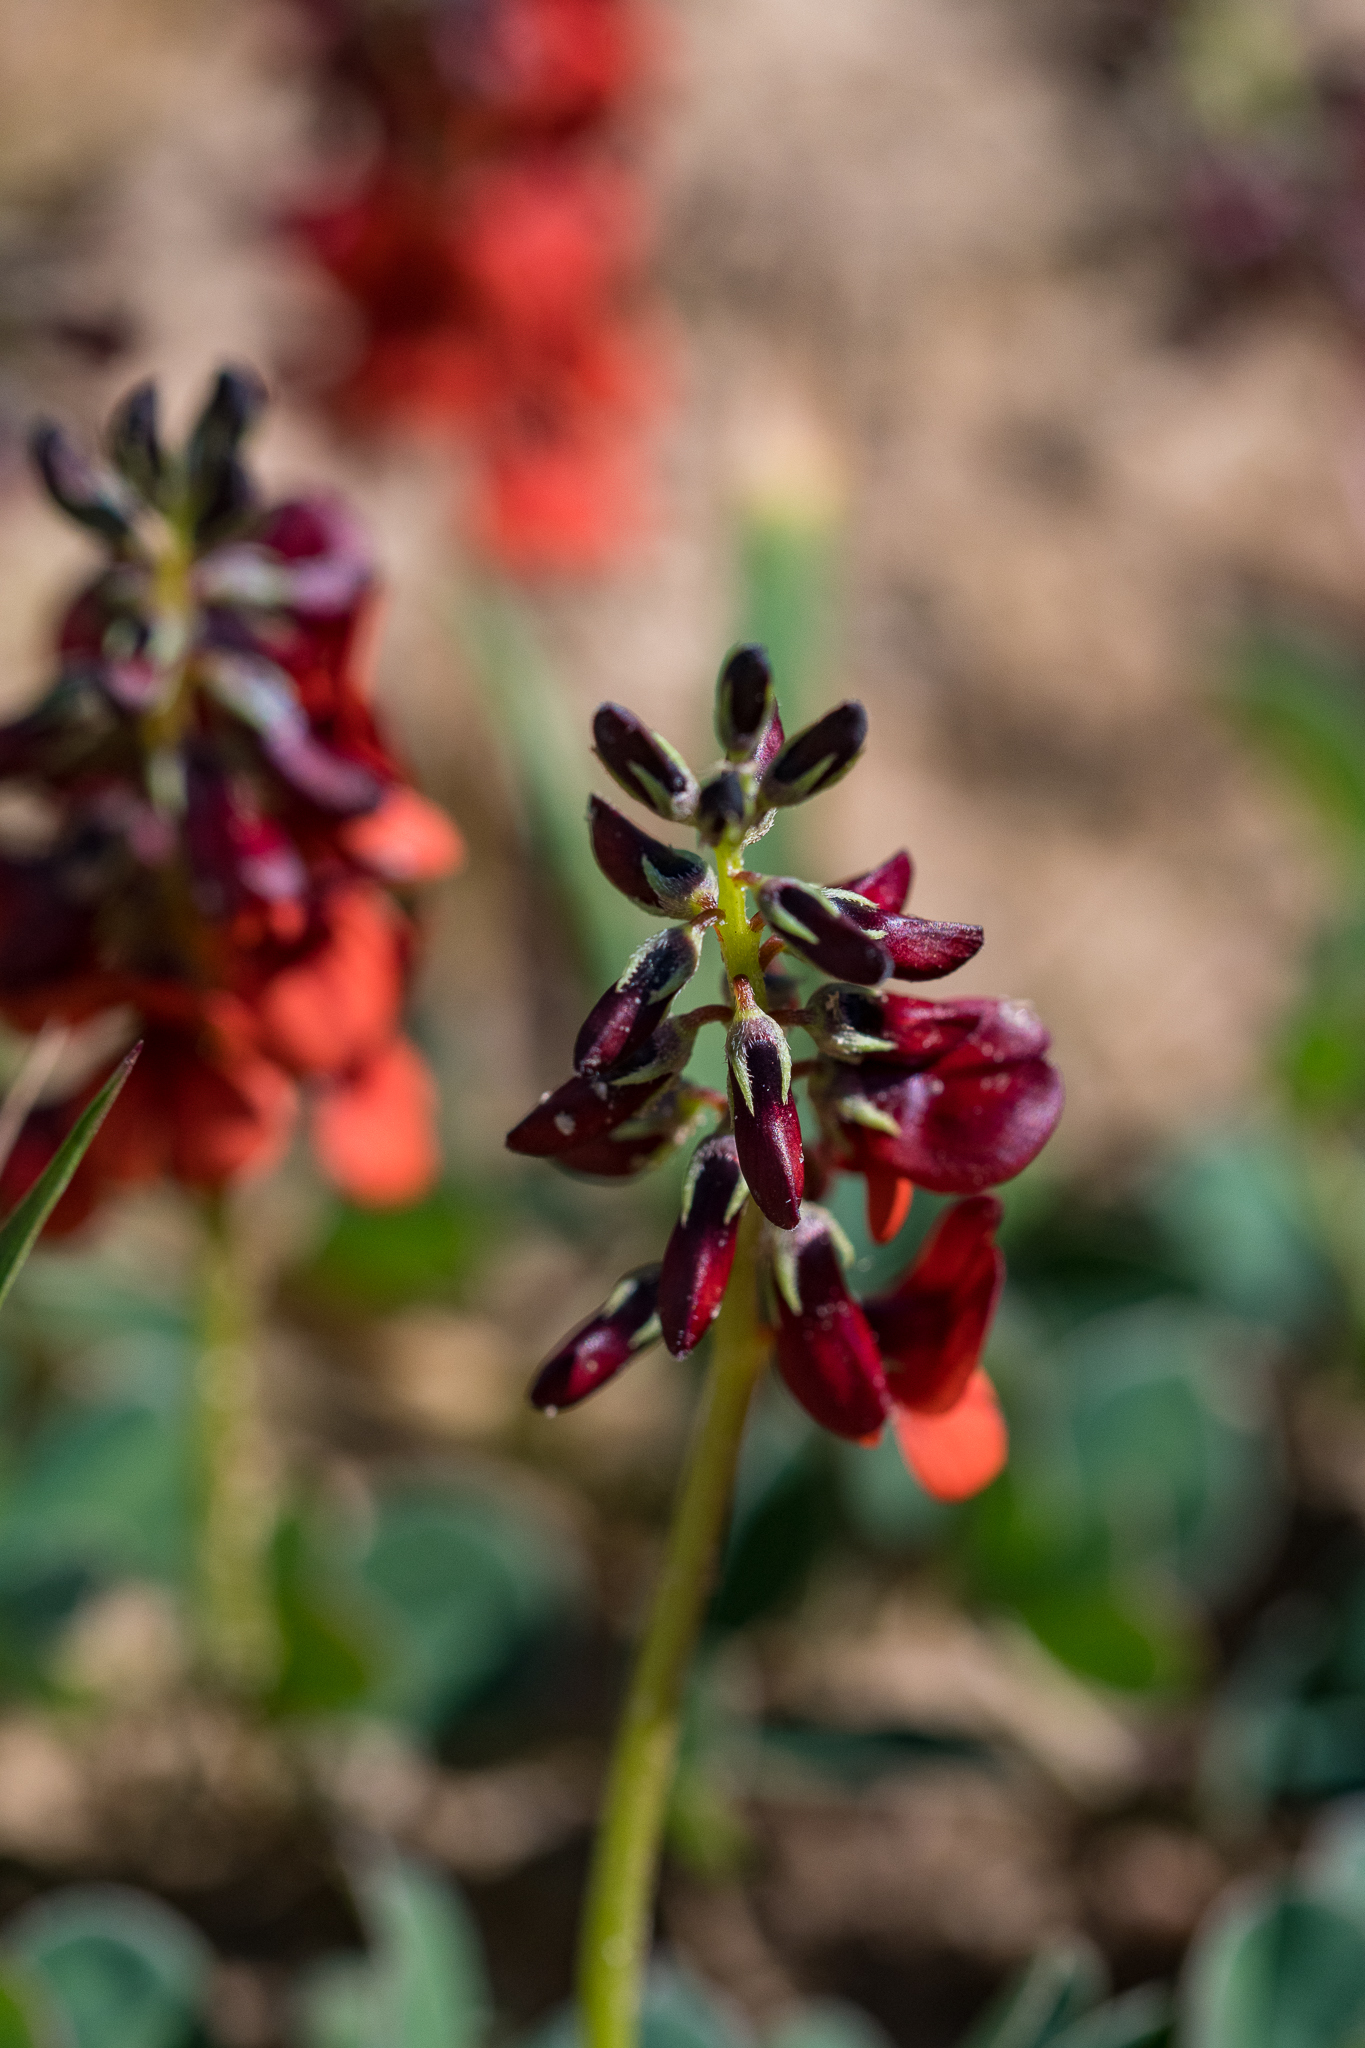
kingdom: Plantae
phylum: Tracheophyta
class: Magnoliopsida
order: Fabales
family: Fabaceae
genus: Indigofera
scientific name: Indigofera discolor
